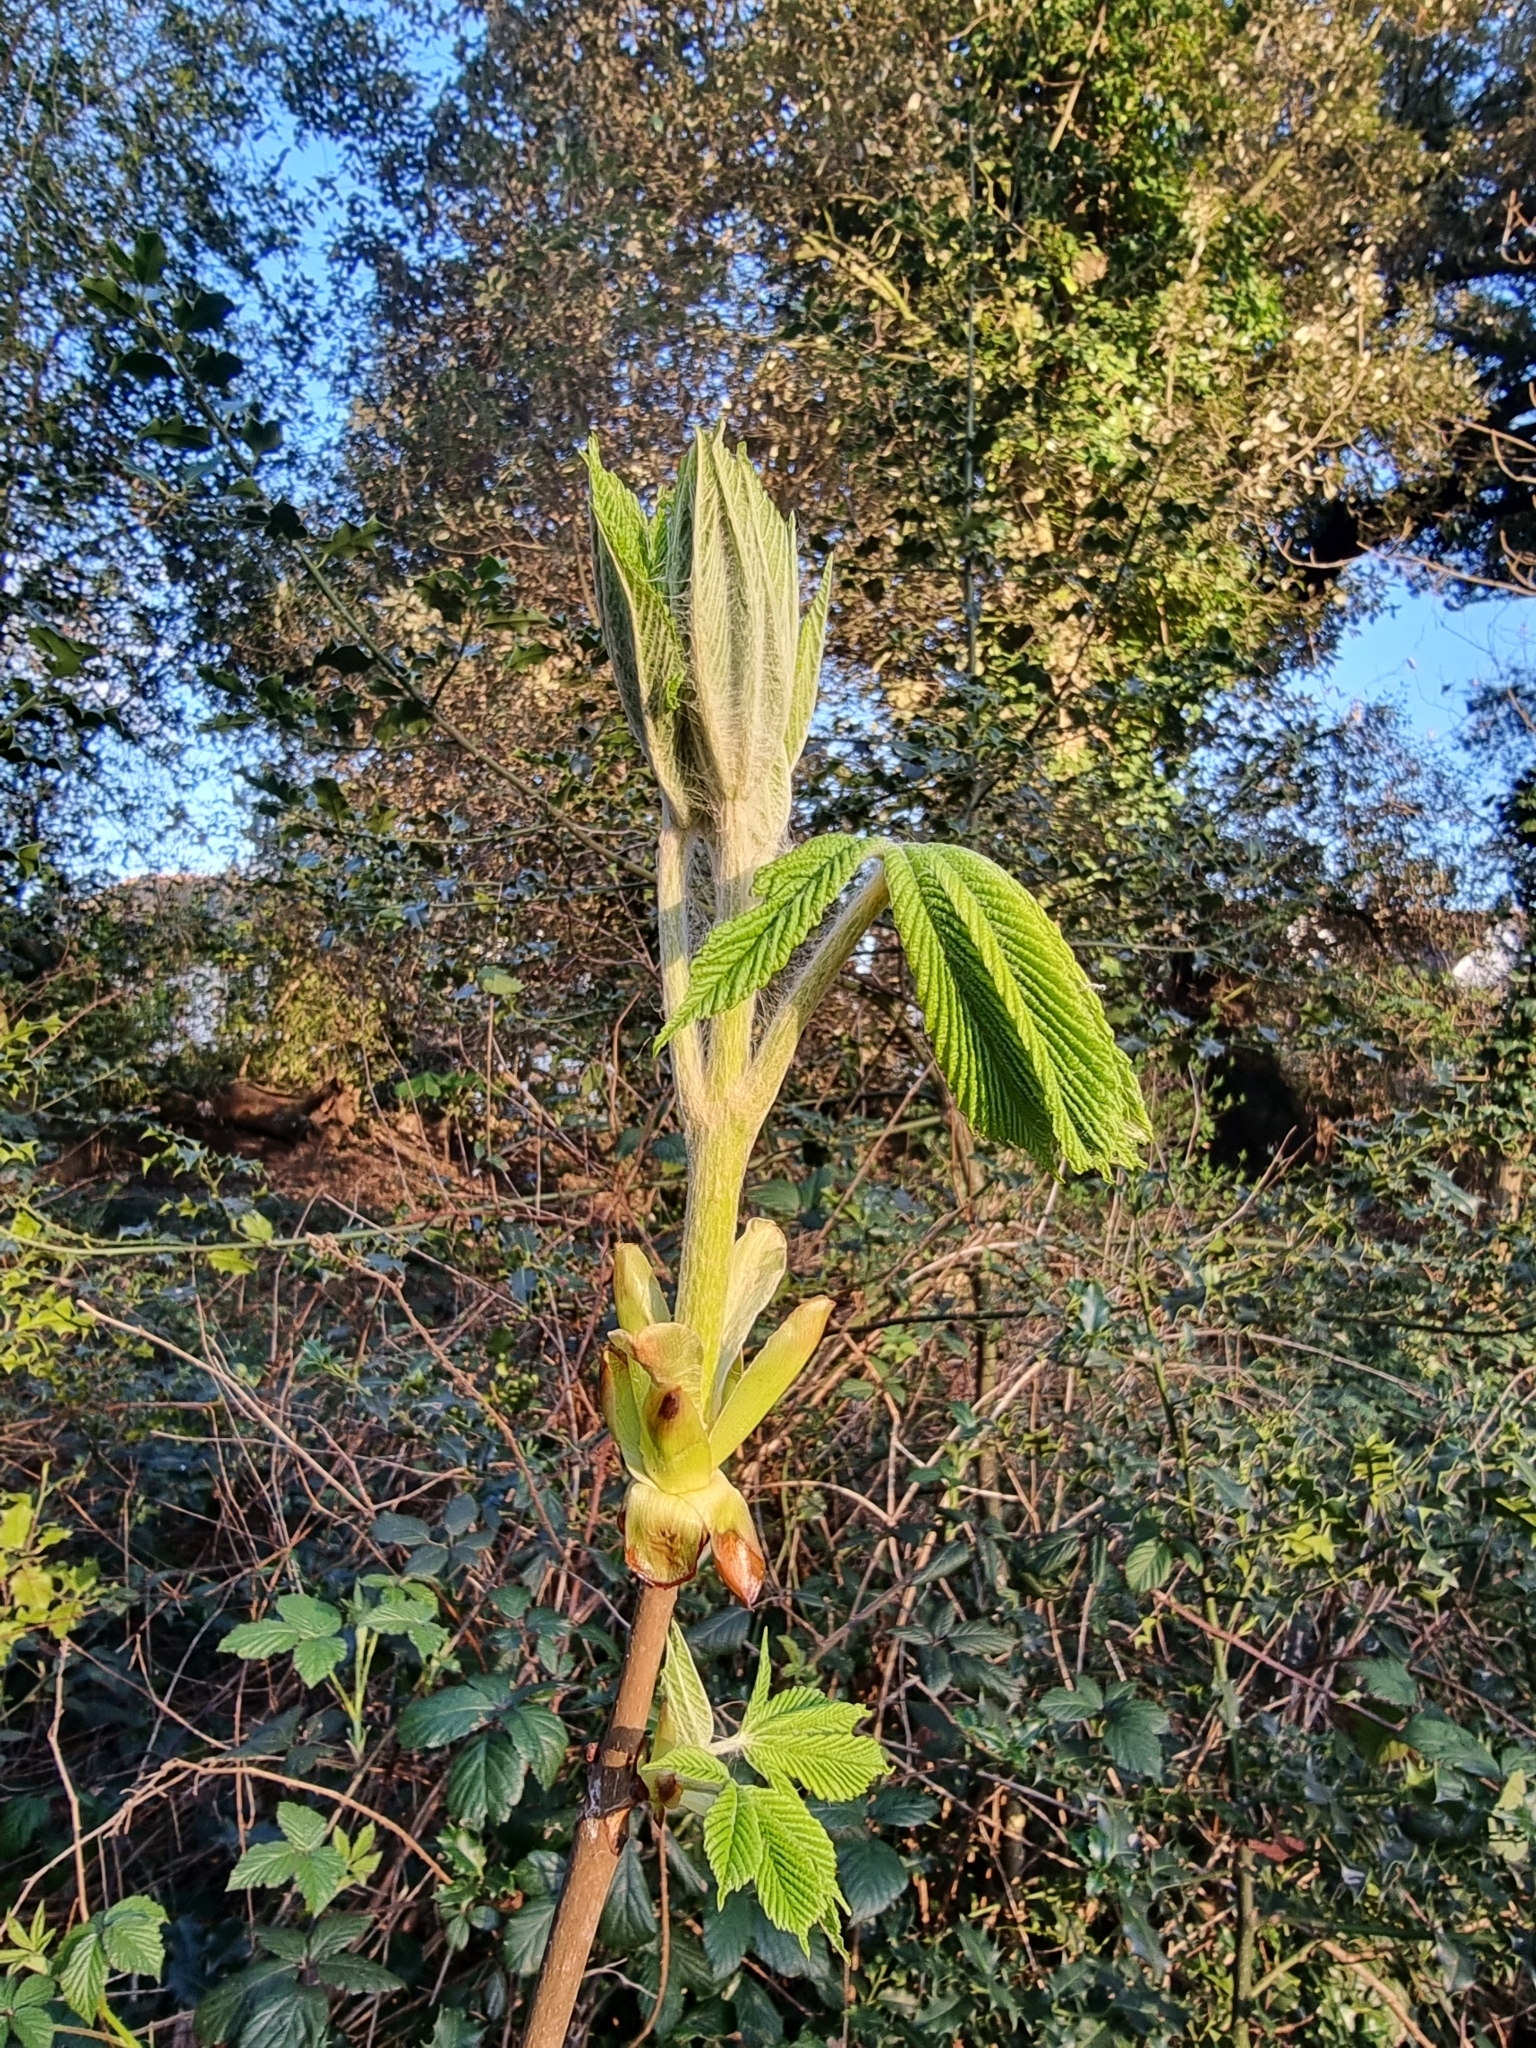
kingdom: Plantae
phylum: Tracheophyta
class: Magnoliopsida
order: Sapindales
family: Sapindaceae
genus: Aesculus
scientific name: Aesculus hippocastanum
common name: Horse-chestnut
